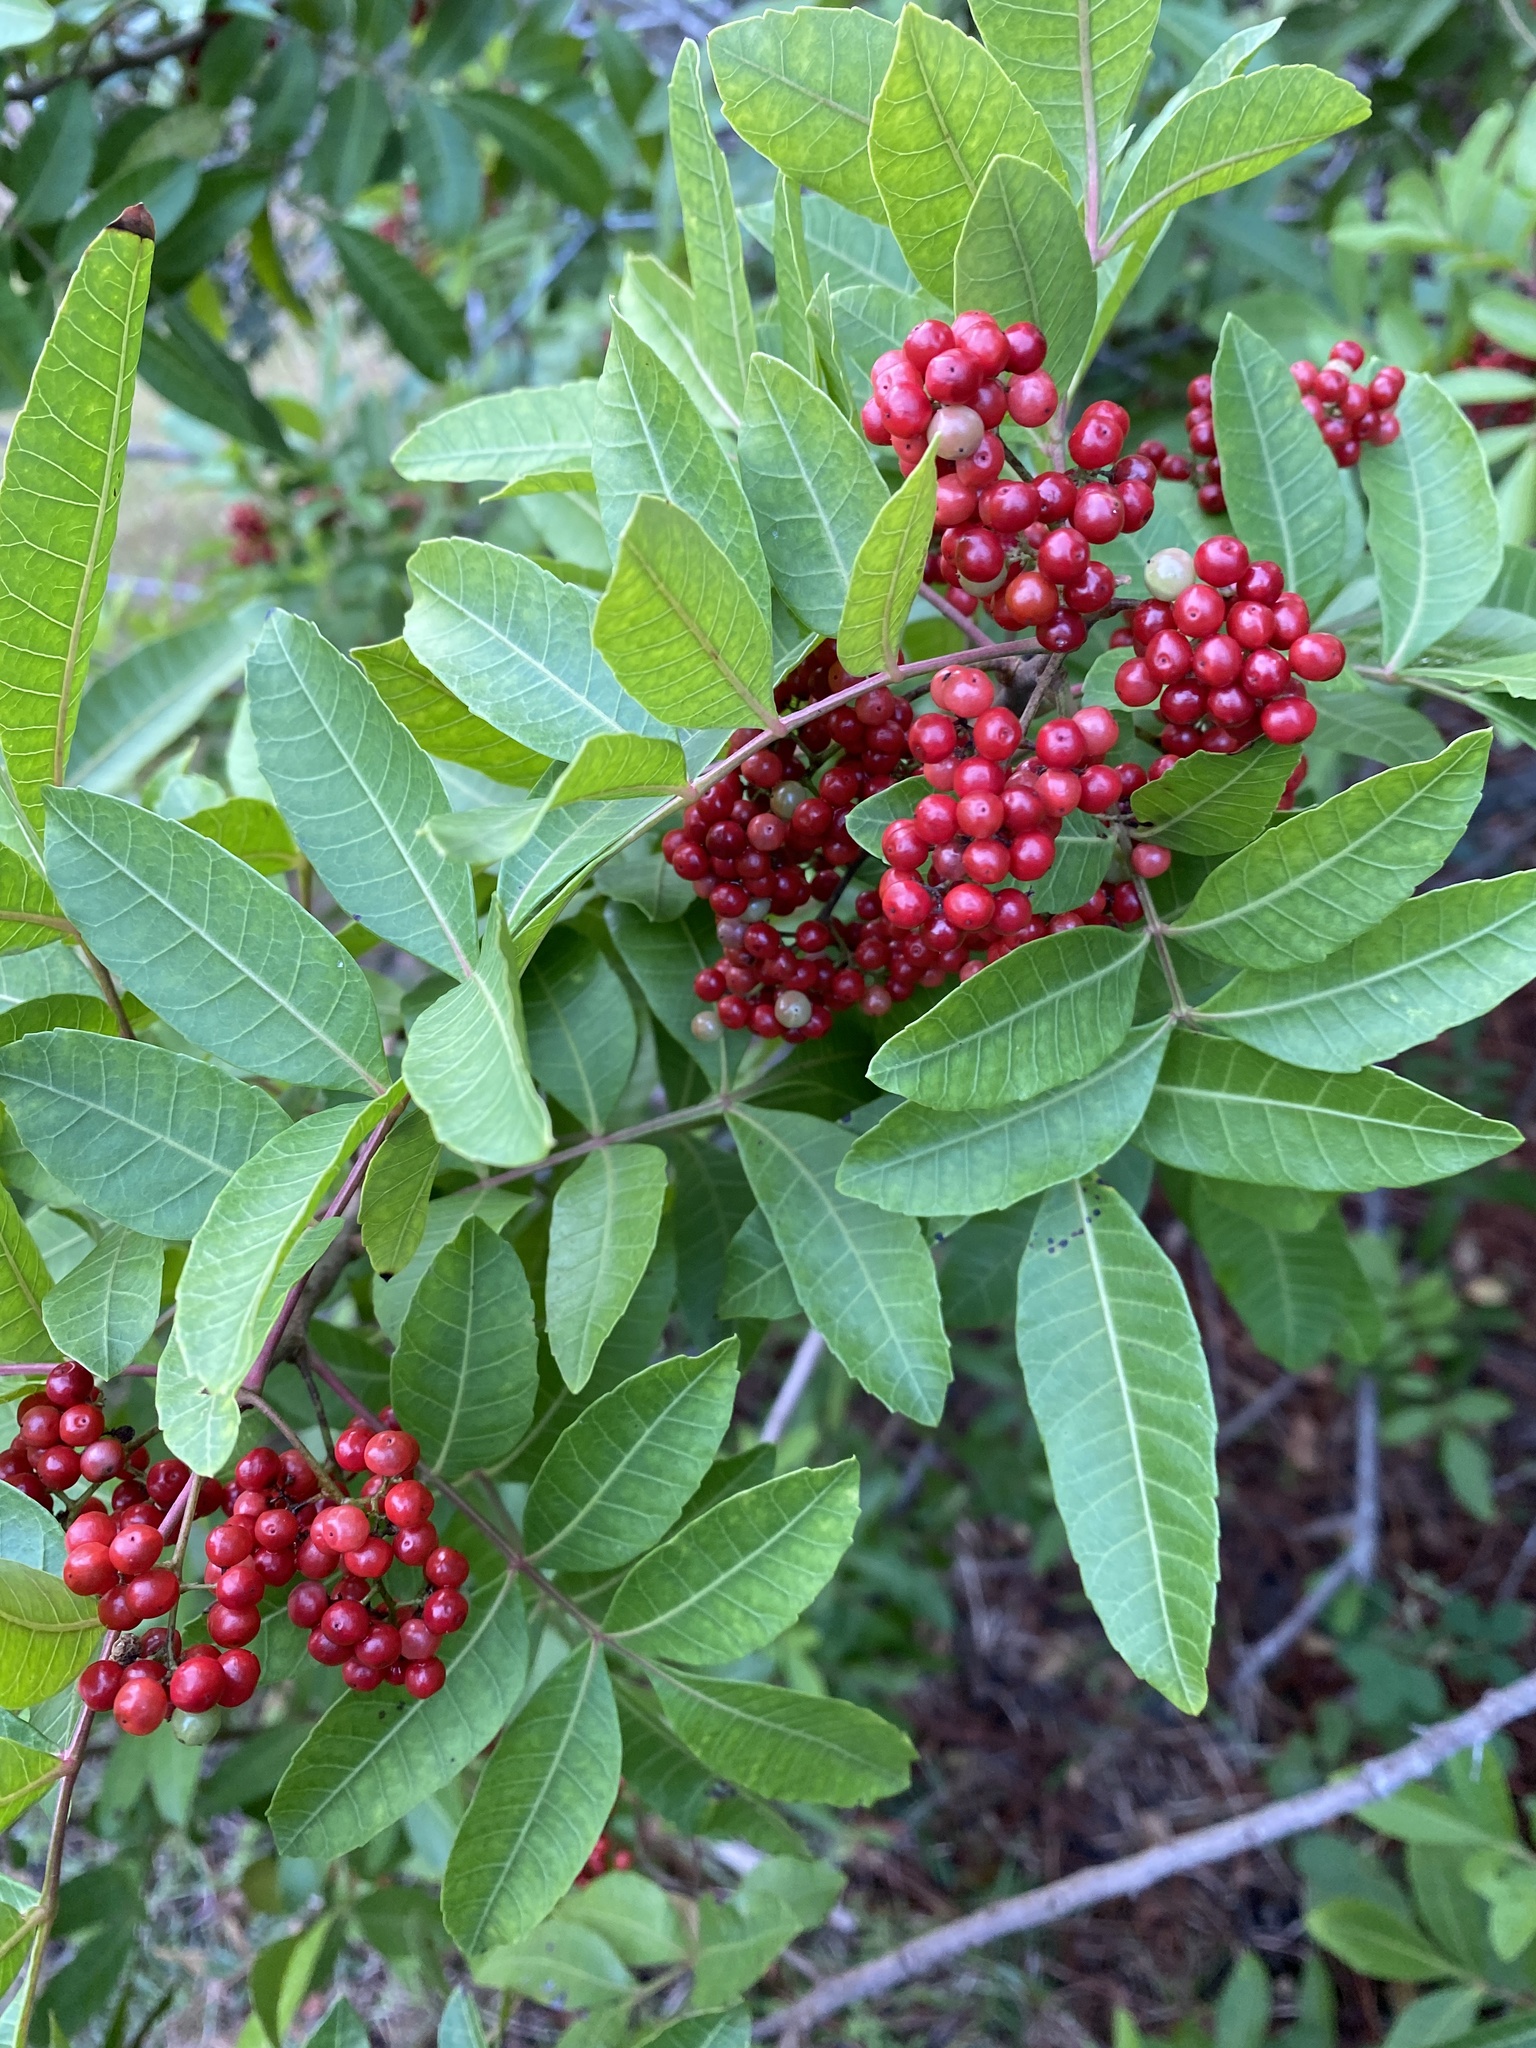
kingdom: Plantae
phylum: Tracheophyta
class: Magnoliopsida
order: Sapindales
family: Anacardiaceae
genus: Schinus
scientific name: Schinus terebinthifolia
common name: Brazilian peppertree
